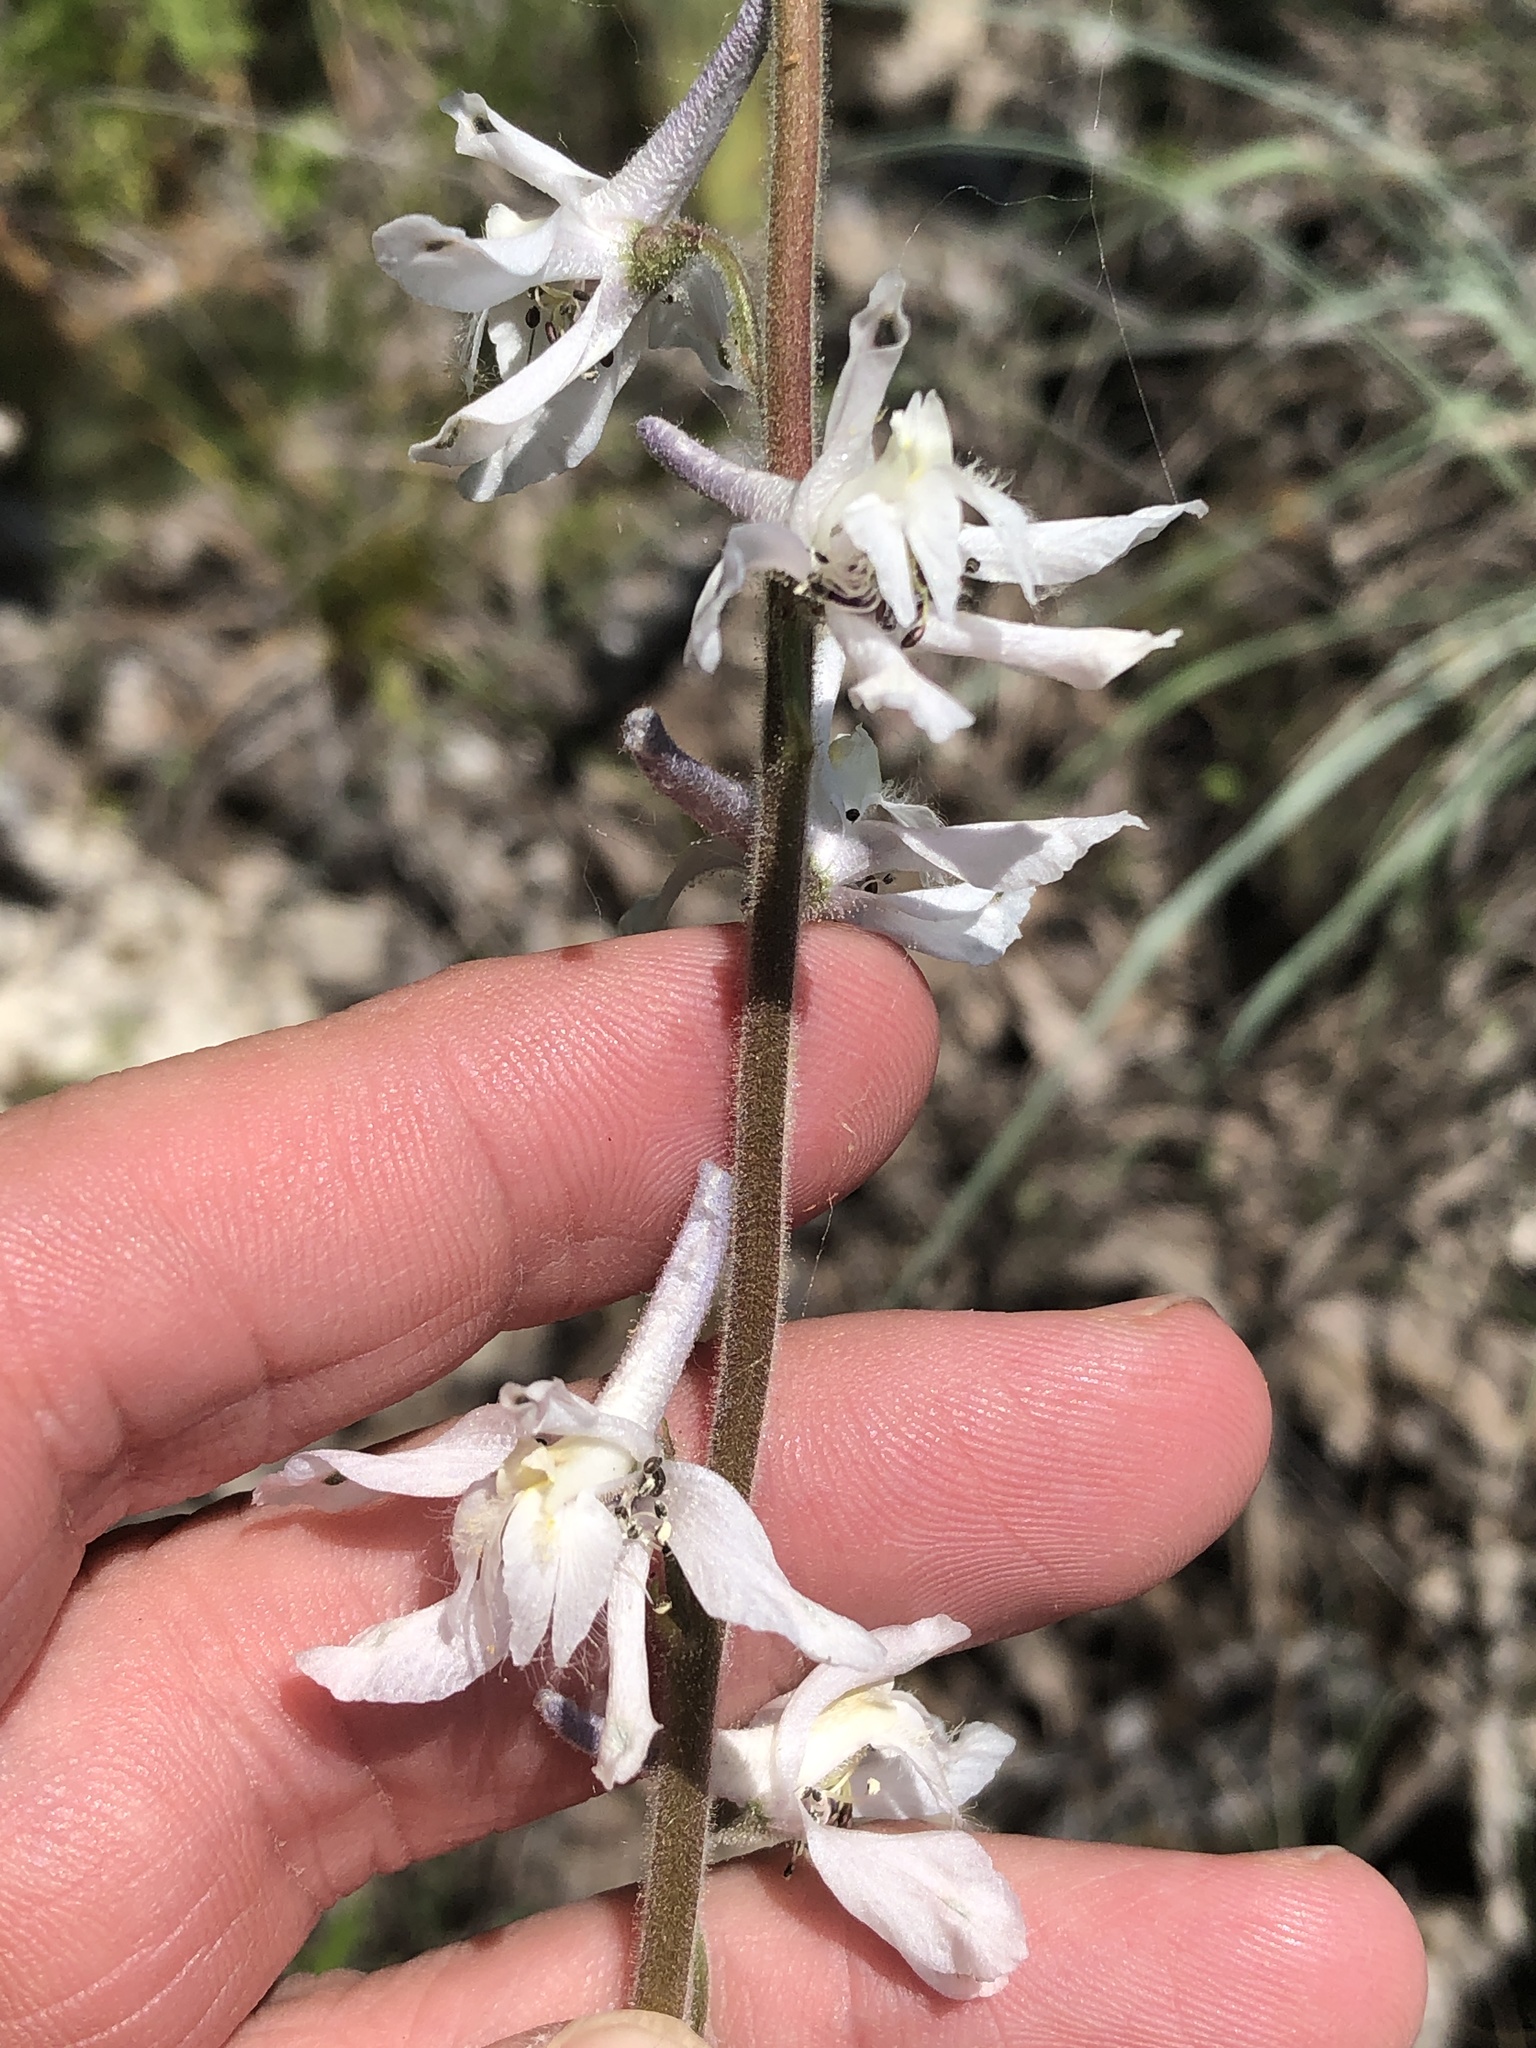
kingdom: Plantae
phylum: Tracheophyta
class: Magnoliopsida
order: Ranunculales
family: Ranunculaceae
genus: Delphinium
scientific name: Delphinium carolinianum
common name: Carolina larkspur
